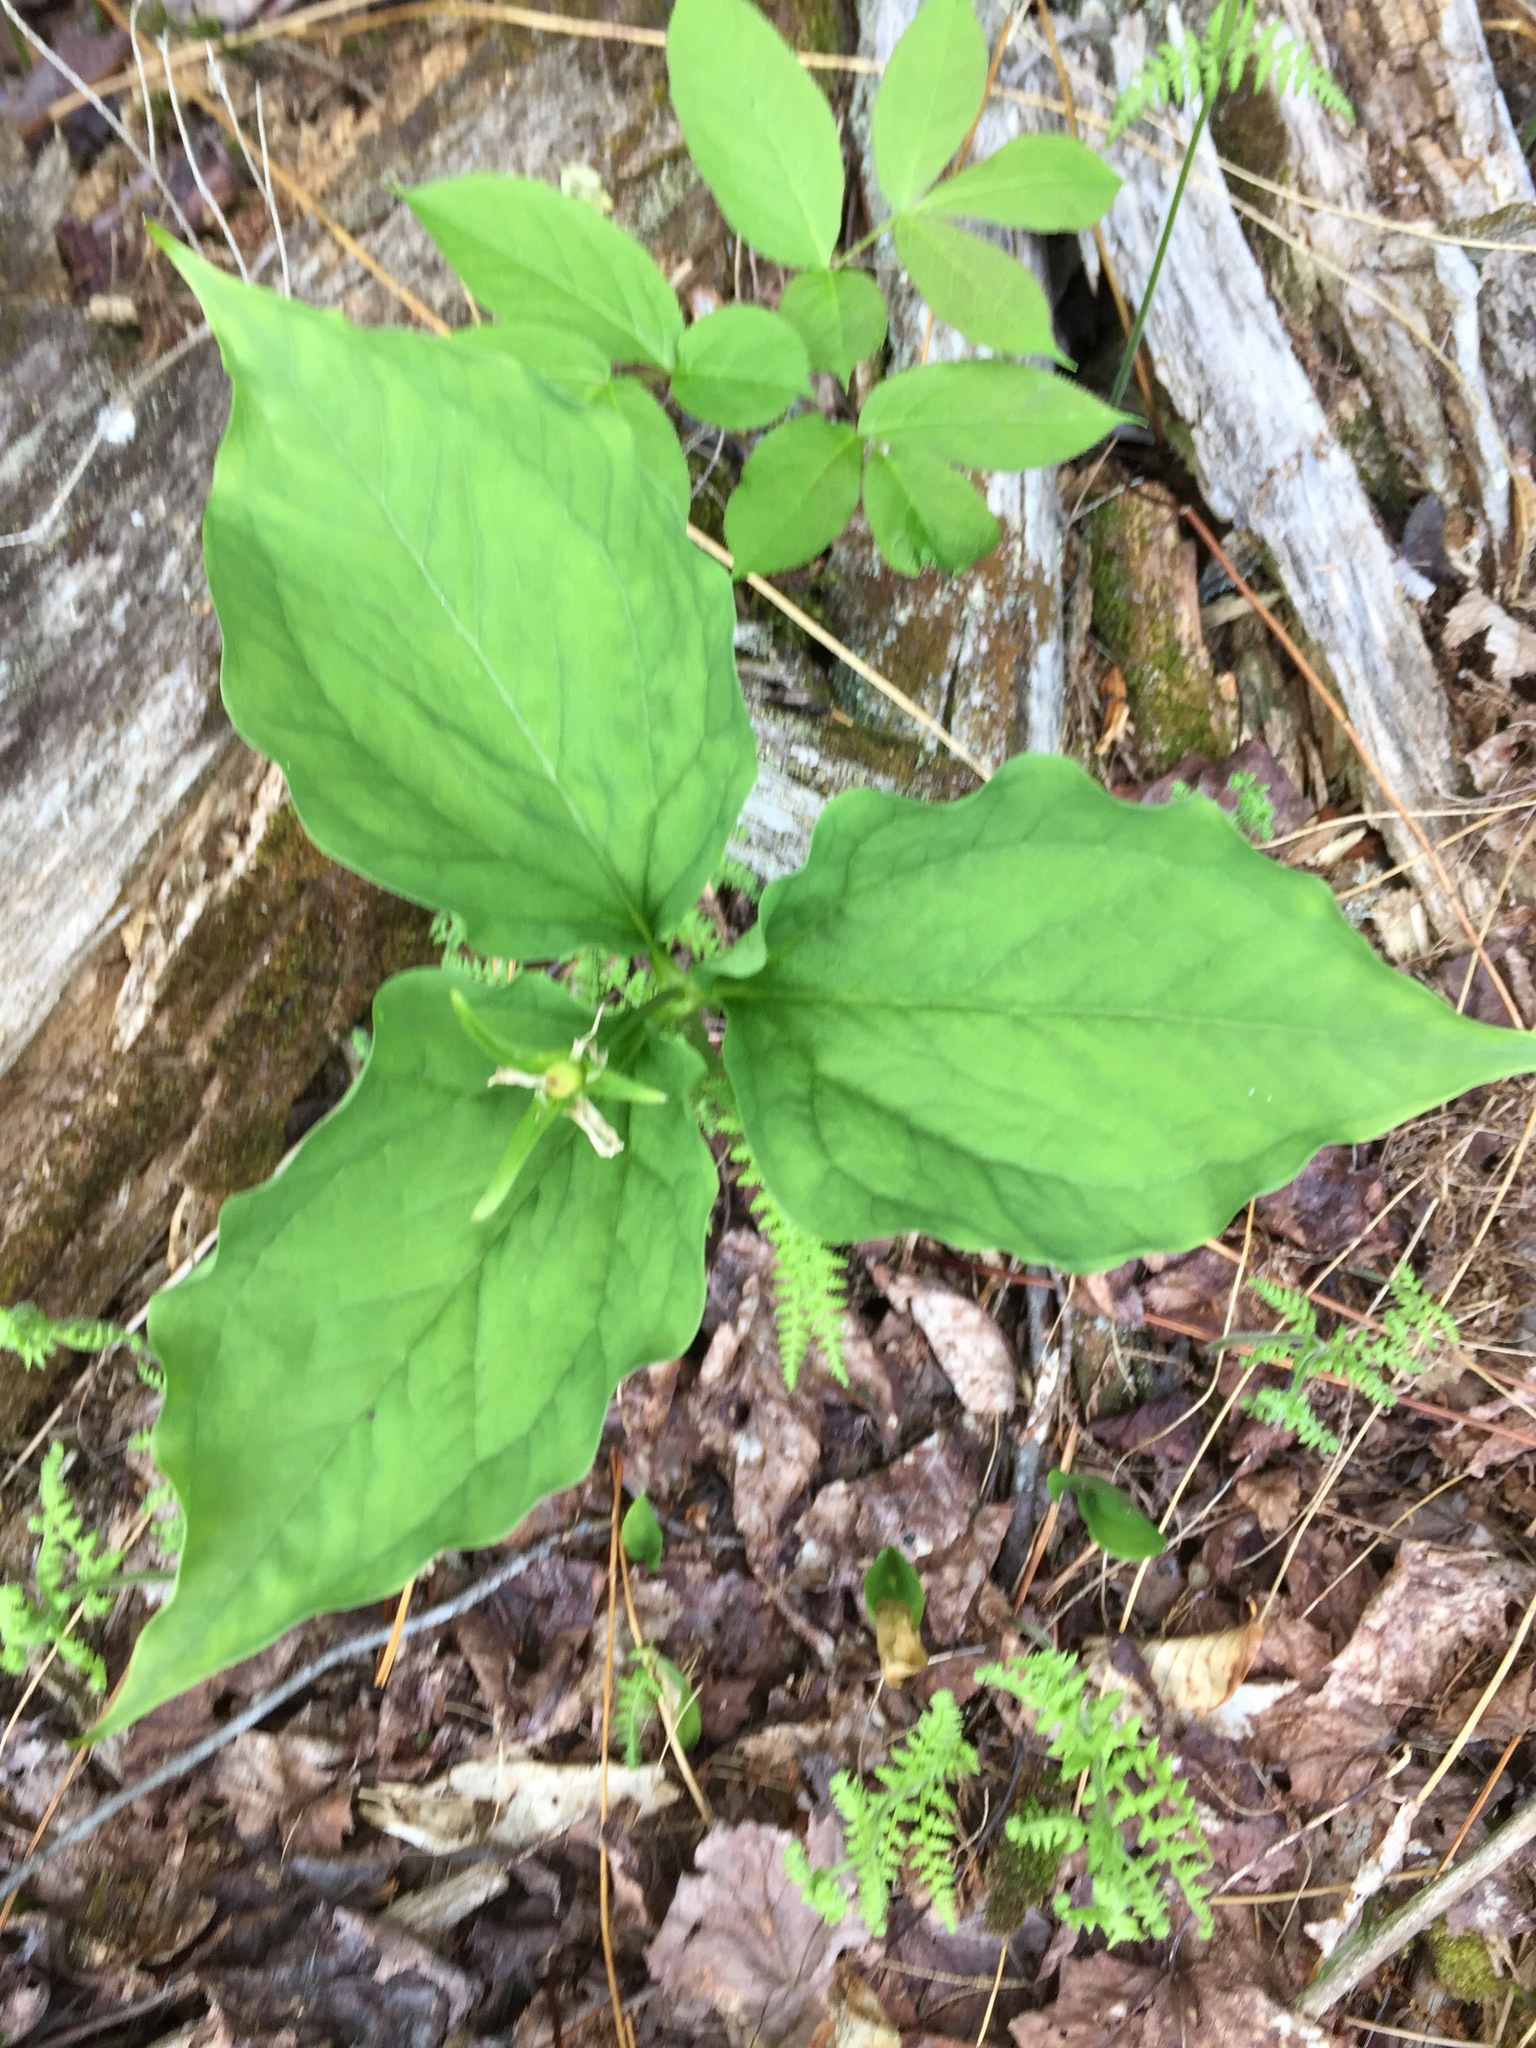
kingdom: Plantae
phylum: Tracheophyta
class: Liliopsida
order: Liliales
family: Melanthiaceae
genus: Trillium
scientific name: Trillium undulatum
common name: Paint trillium
